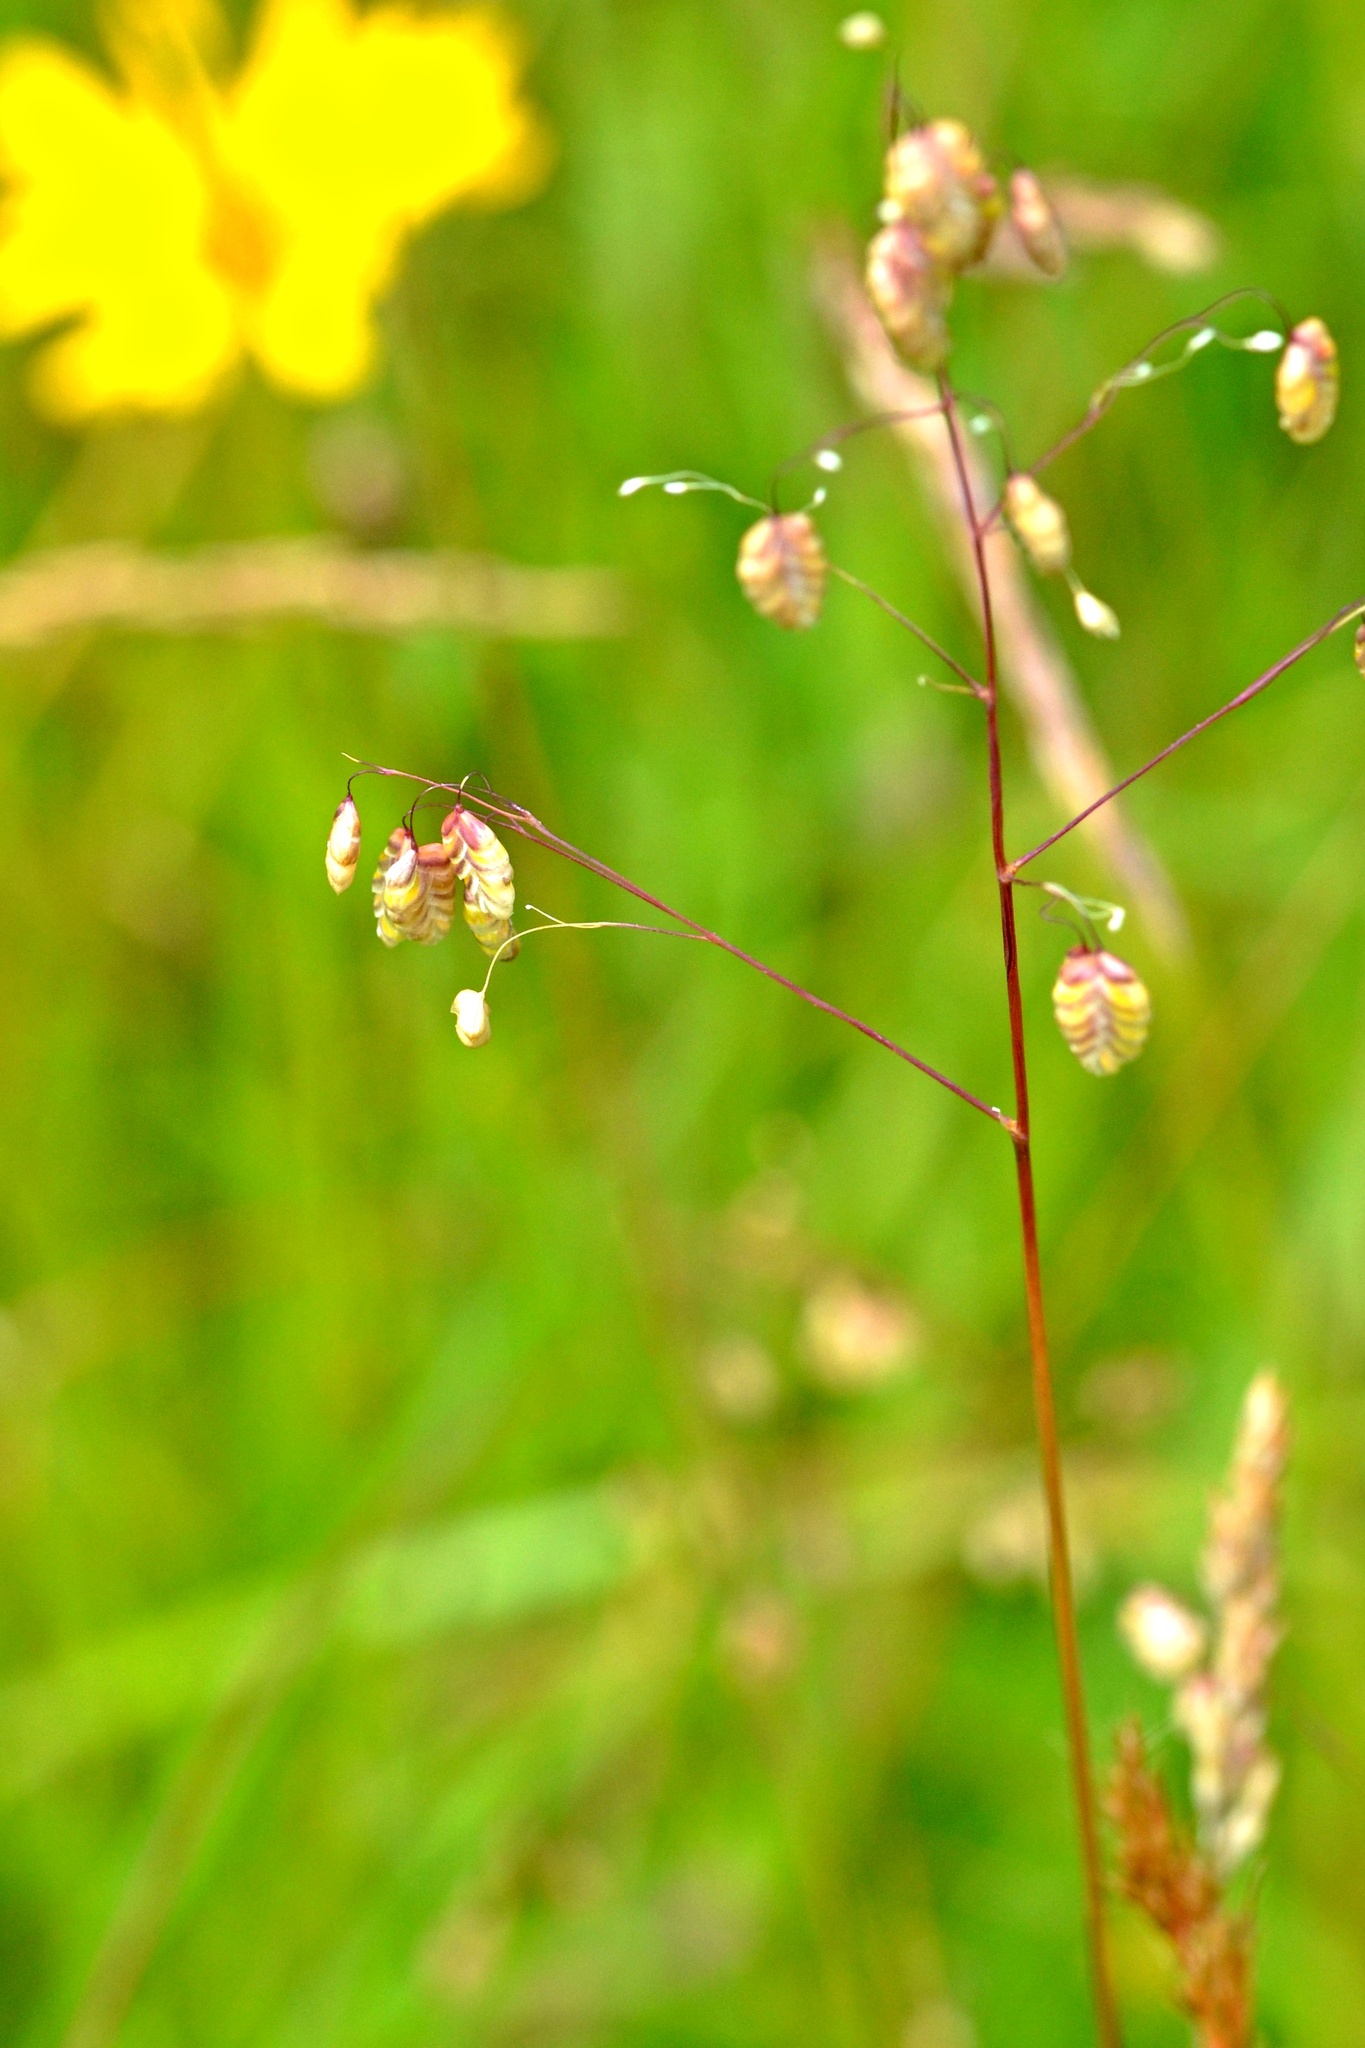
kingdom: Plantae
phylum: Tracheophyta
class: Liliopsida
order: Poales
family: Poaceae
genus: Briza
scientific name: Briza media
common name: Quaking grass
